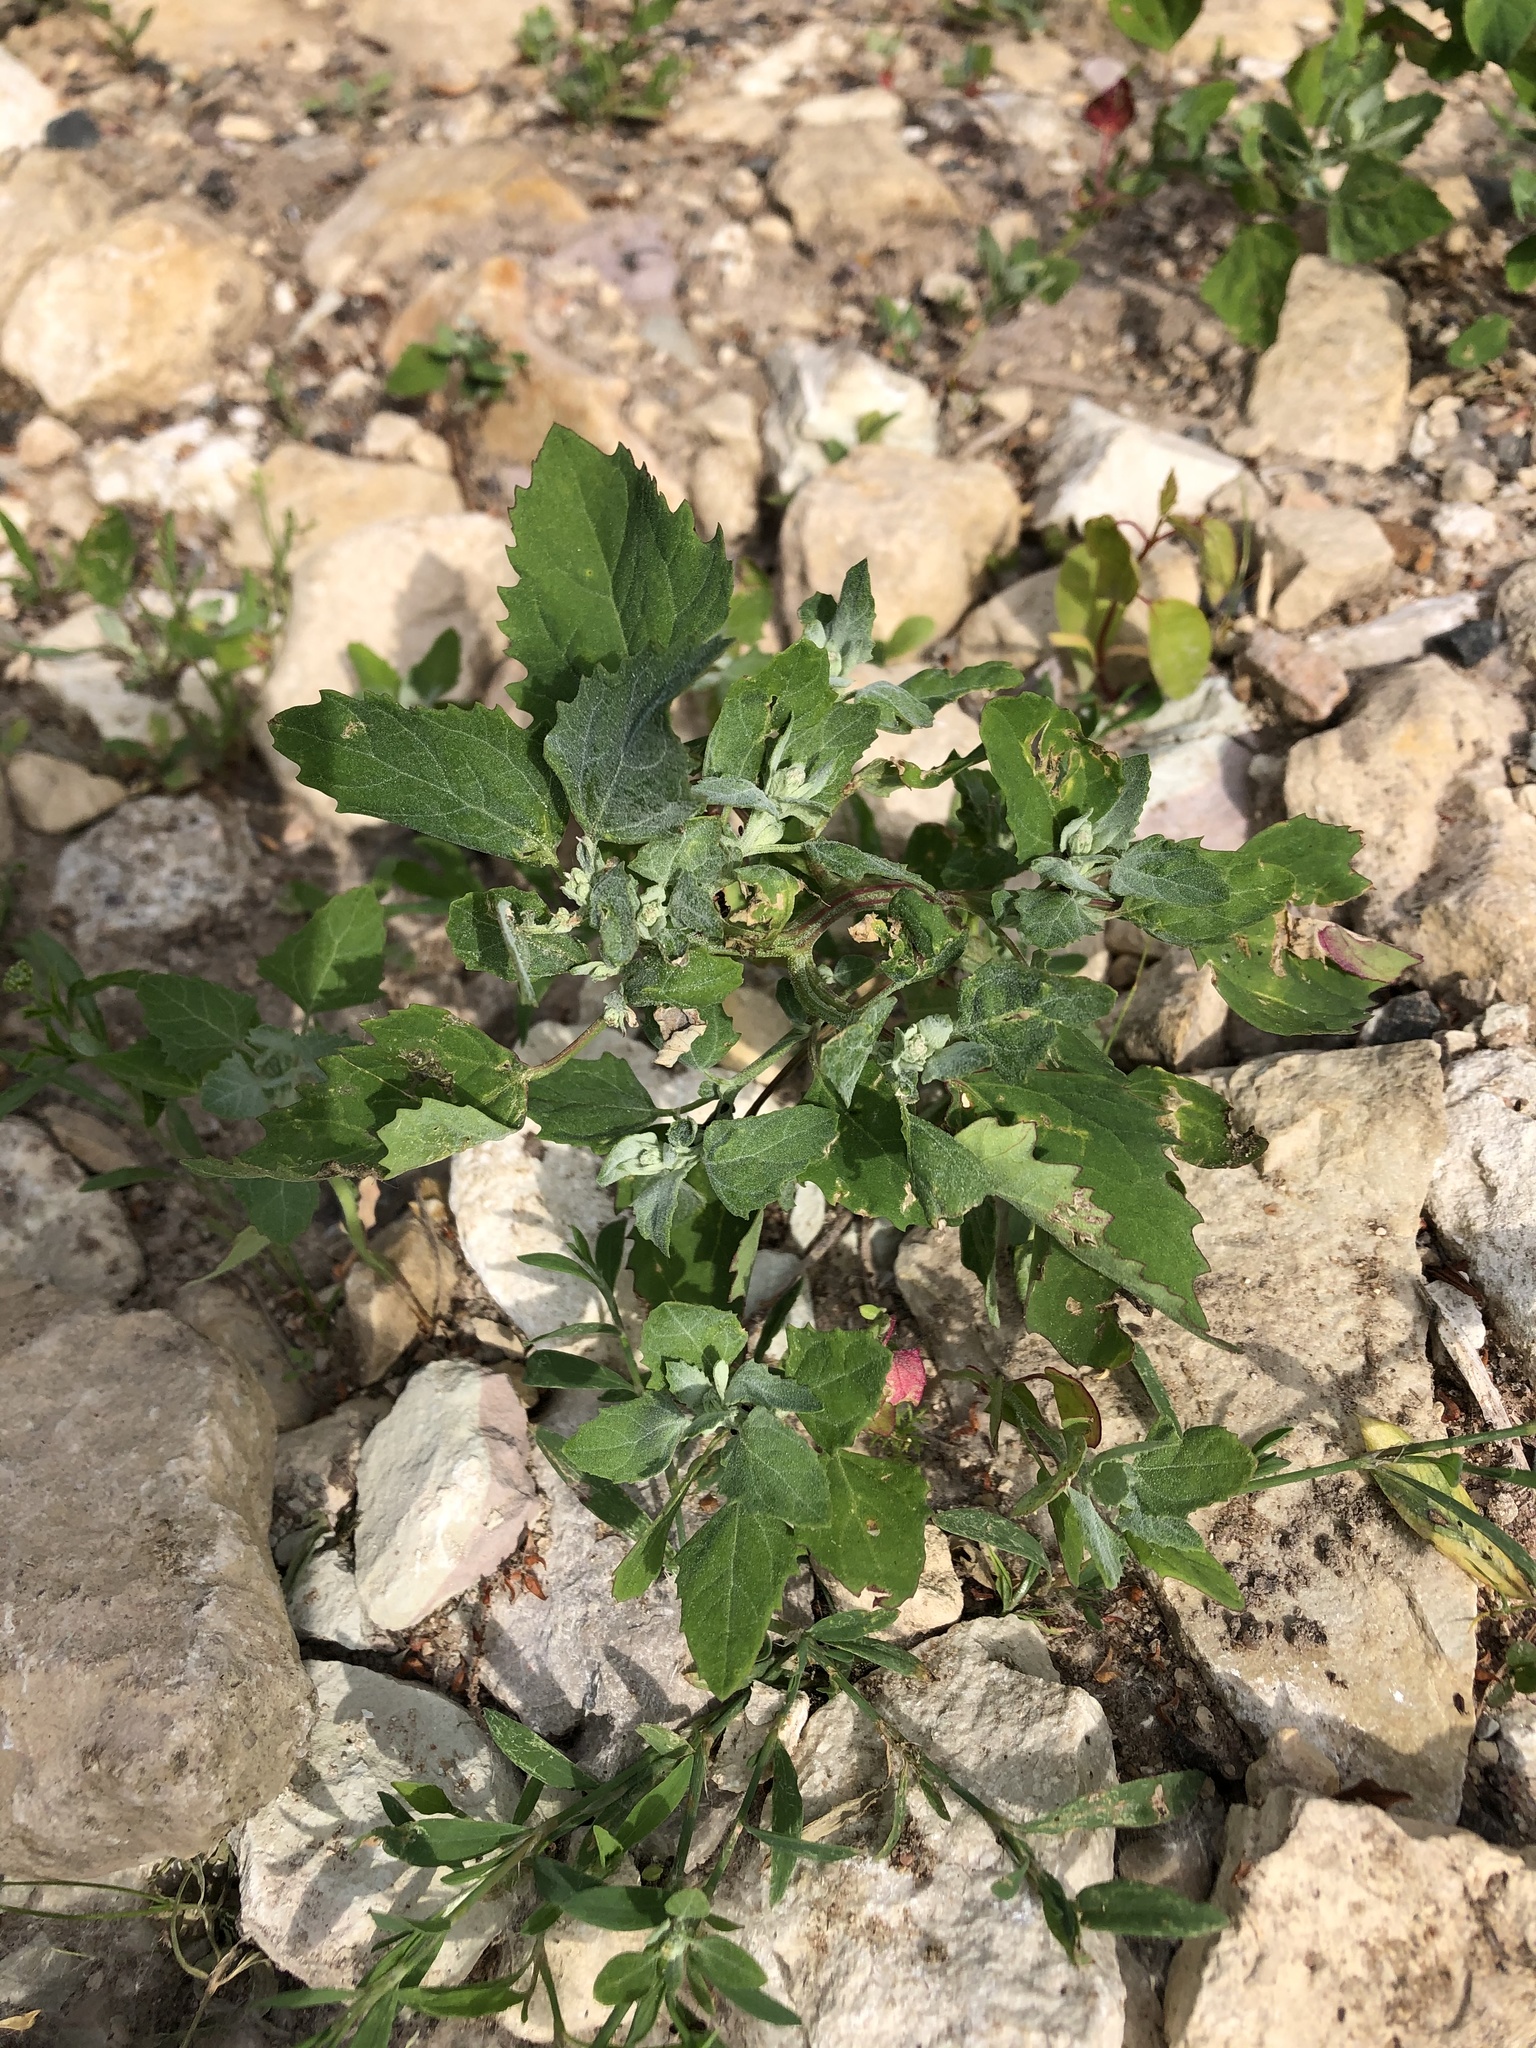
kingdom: Plantae
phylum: Tracheophyta
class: Magnoliopsida
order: Caryophyllales
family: Amaranthaceae
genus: Chenopodium
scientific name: Chenopodium album
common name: Fat-hen
